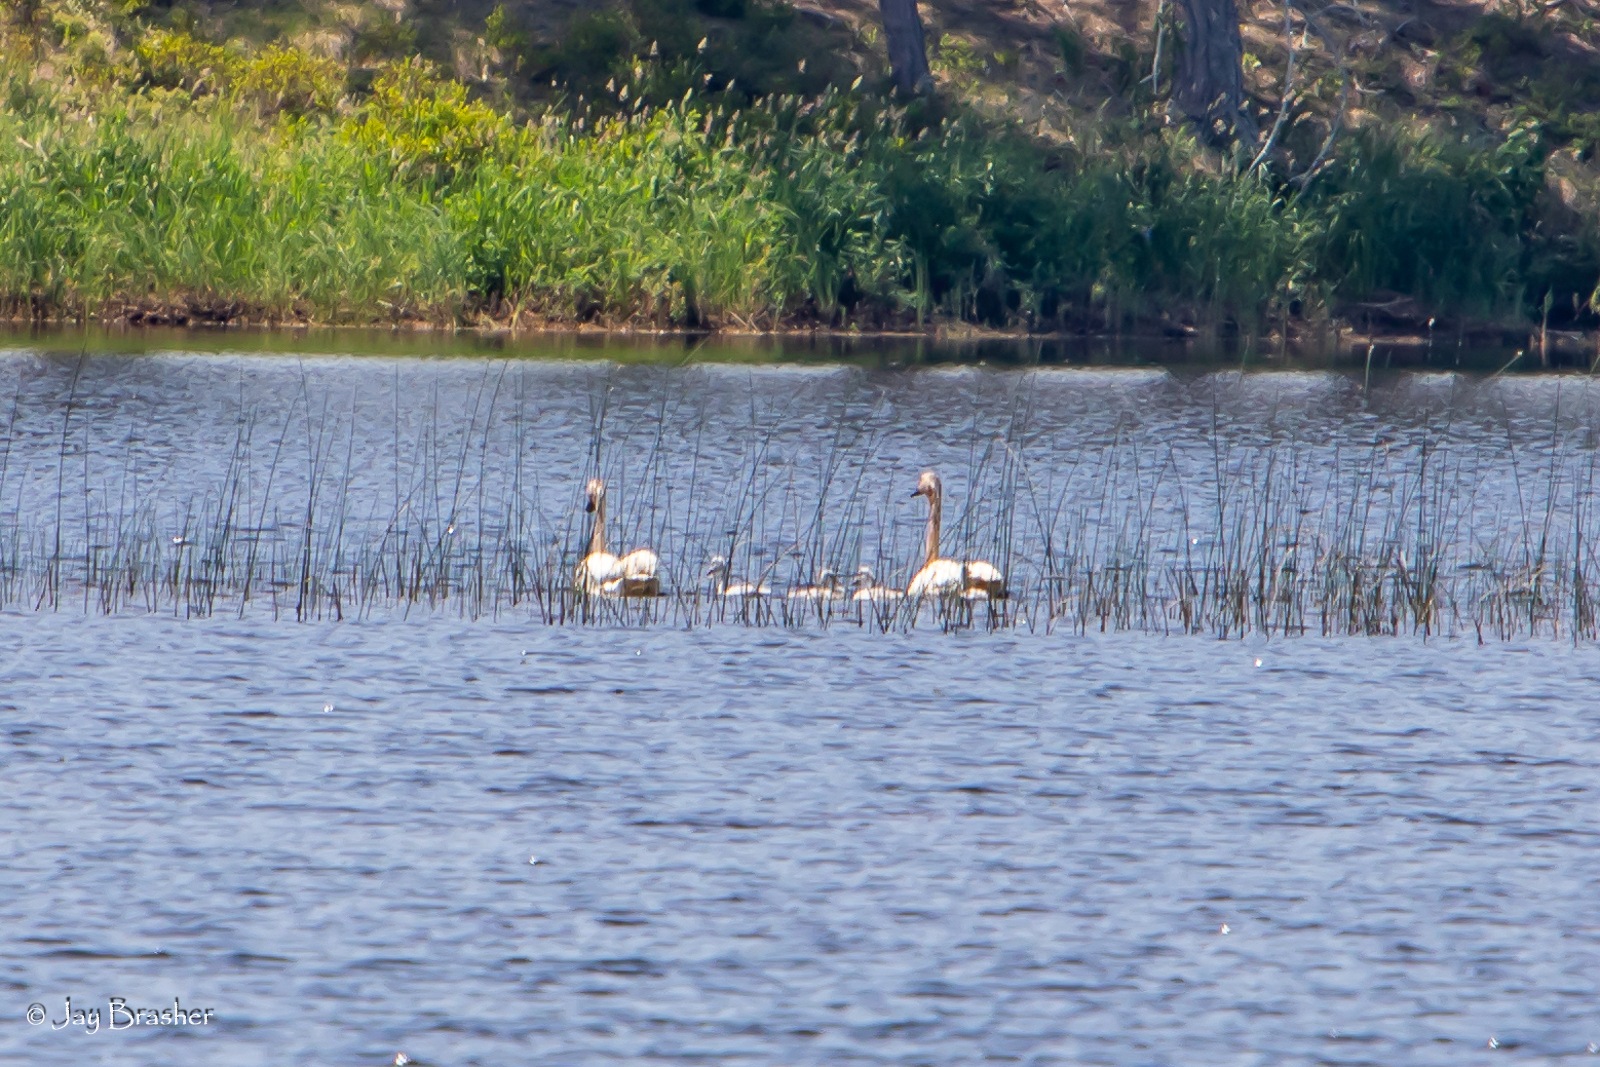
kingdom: Animalia
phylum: Chordata
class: Aves
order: Anseriformes
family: Anatidae
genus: Cygnus
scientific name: Cygnus buccinator
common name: Trumpeter swan
